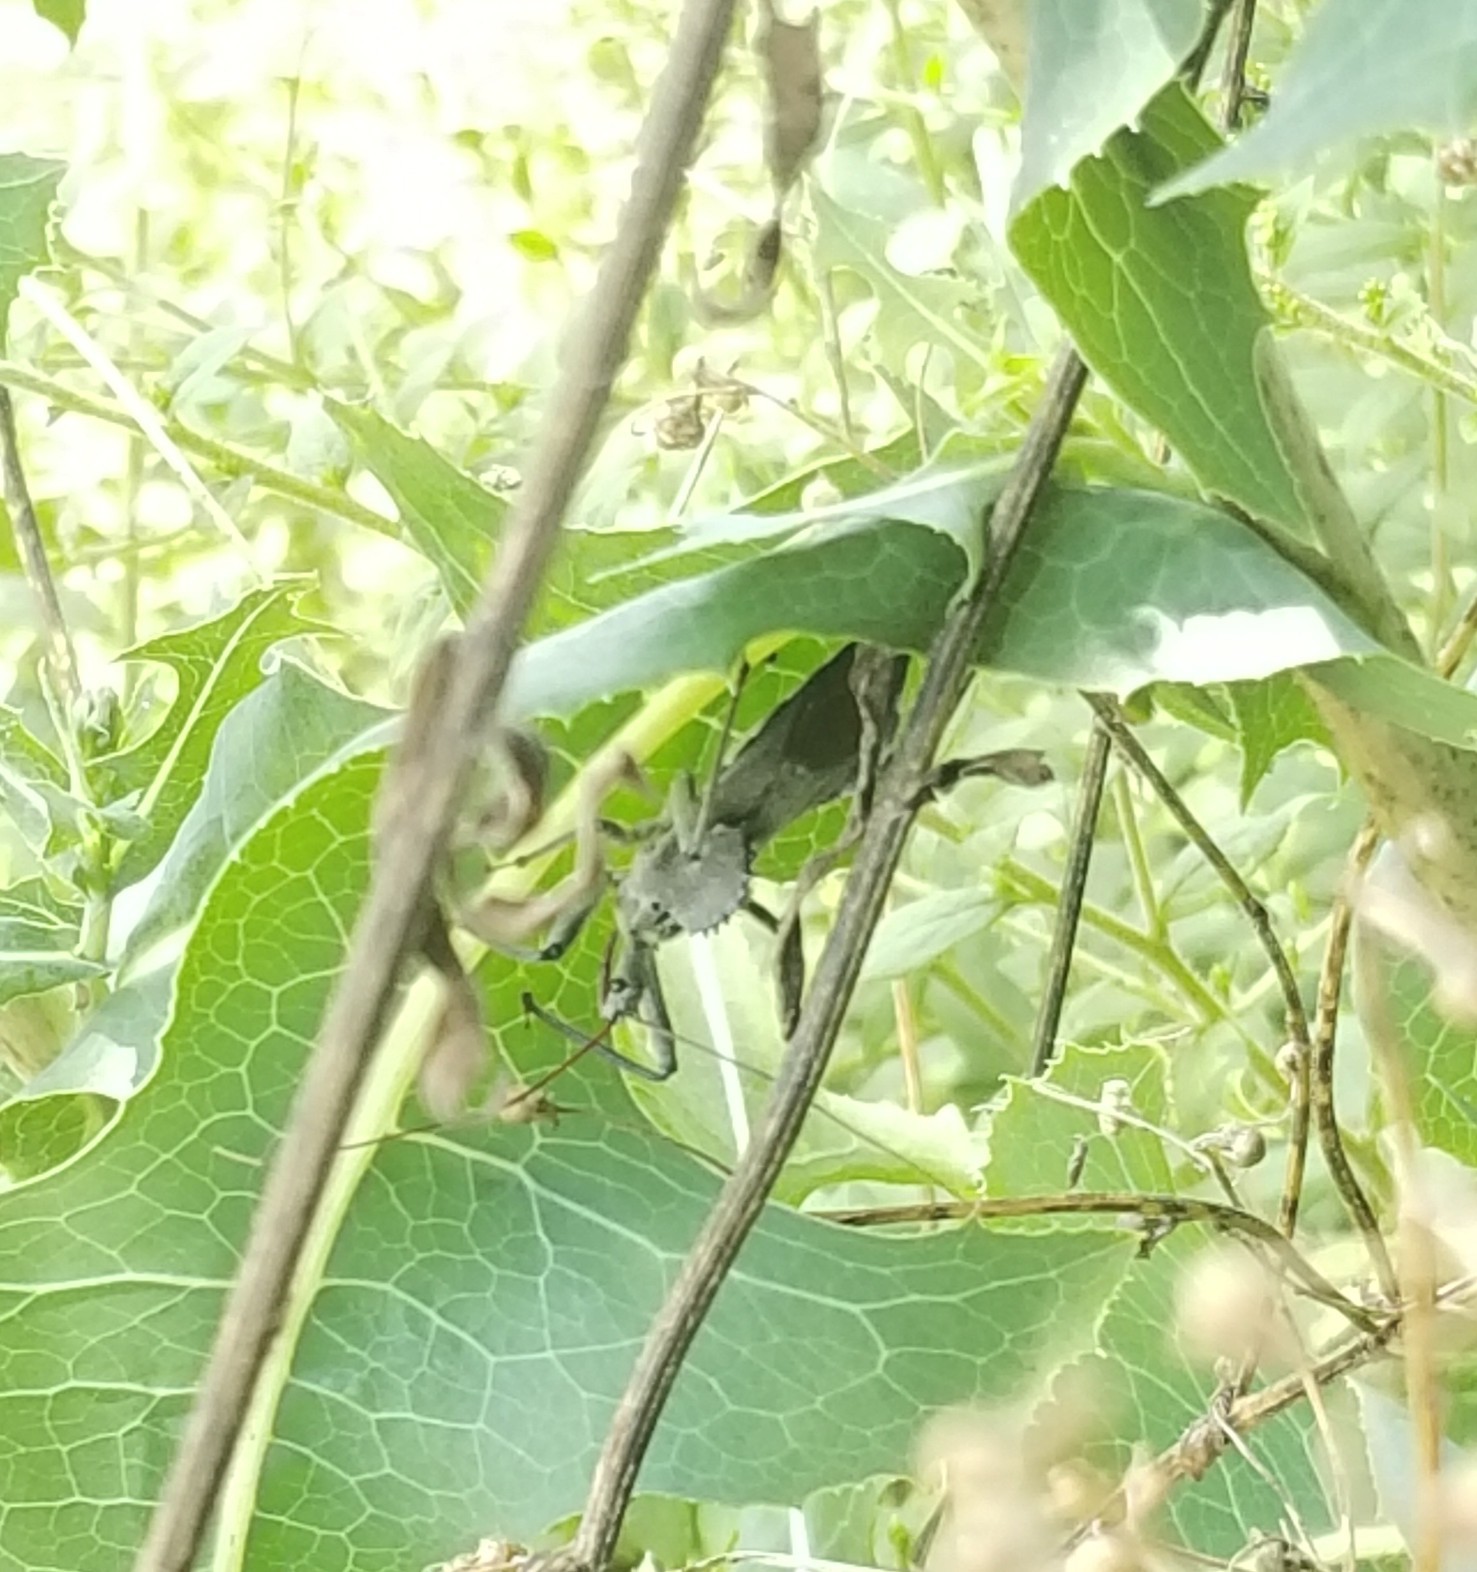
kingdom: Animalia
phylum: Arthropoda
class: Insecta
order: Hemiptera
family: Reduviidae
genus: Arilus
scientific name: Arilus cristatus
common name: North american wheel bug
